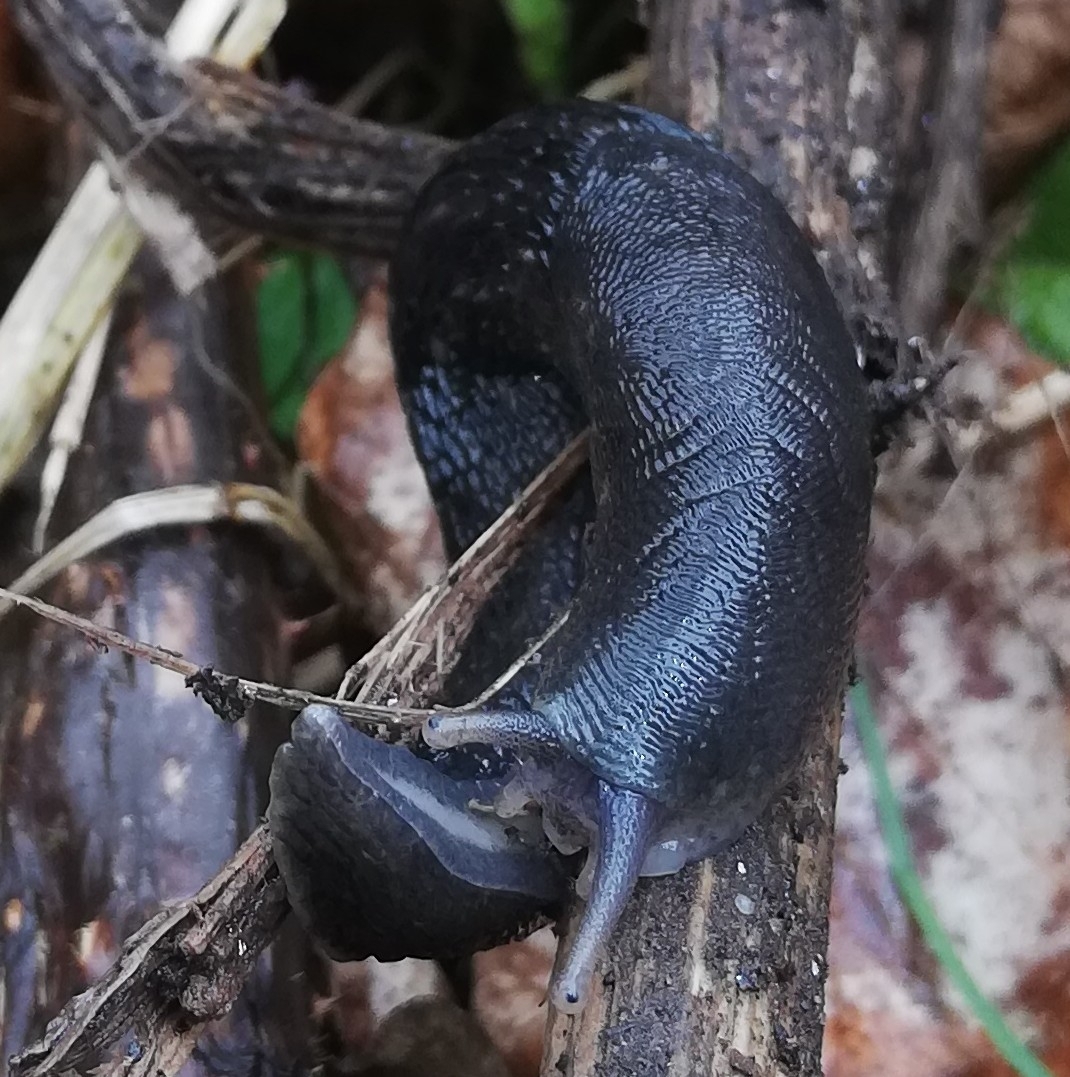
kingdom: Animalia
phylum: Mollusca
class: Gastropoda
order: Stylommatophora
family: Limacidae
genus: Limax
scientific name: Limax cinereoniger
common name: Ash-black slug
